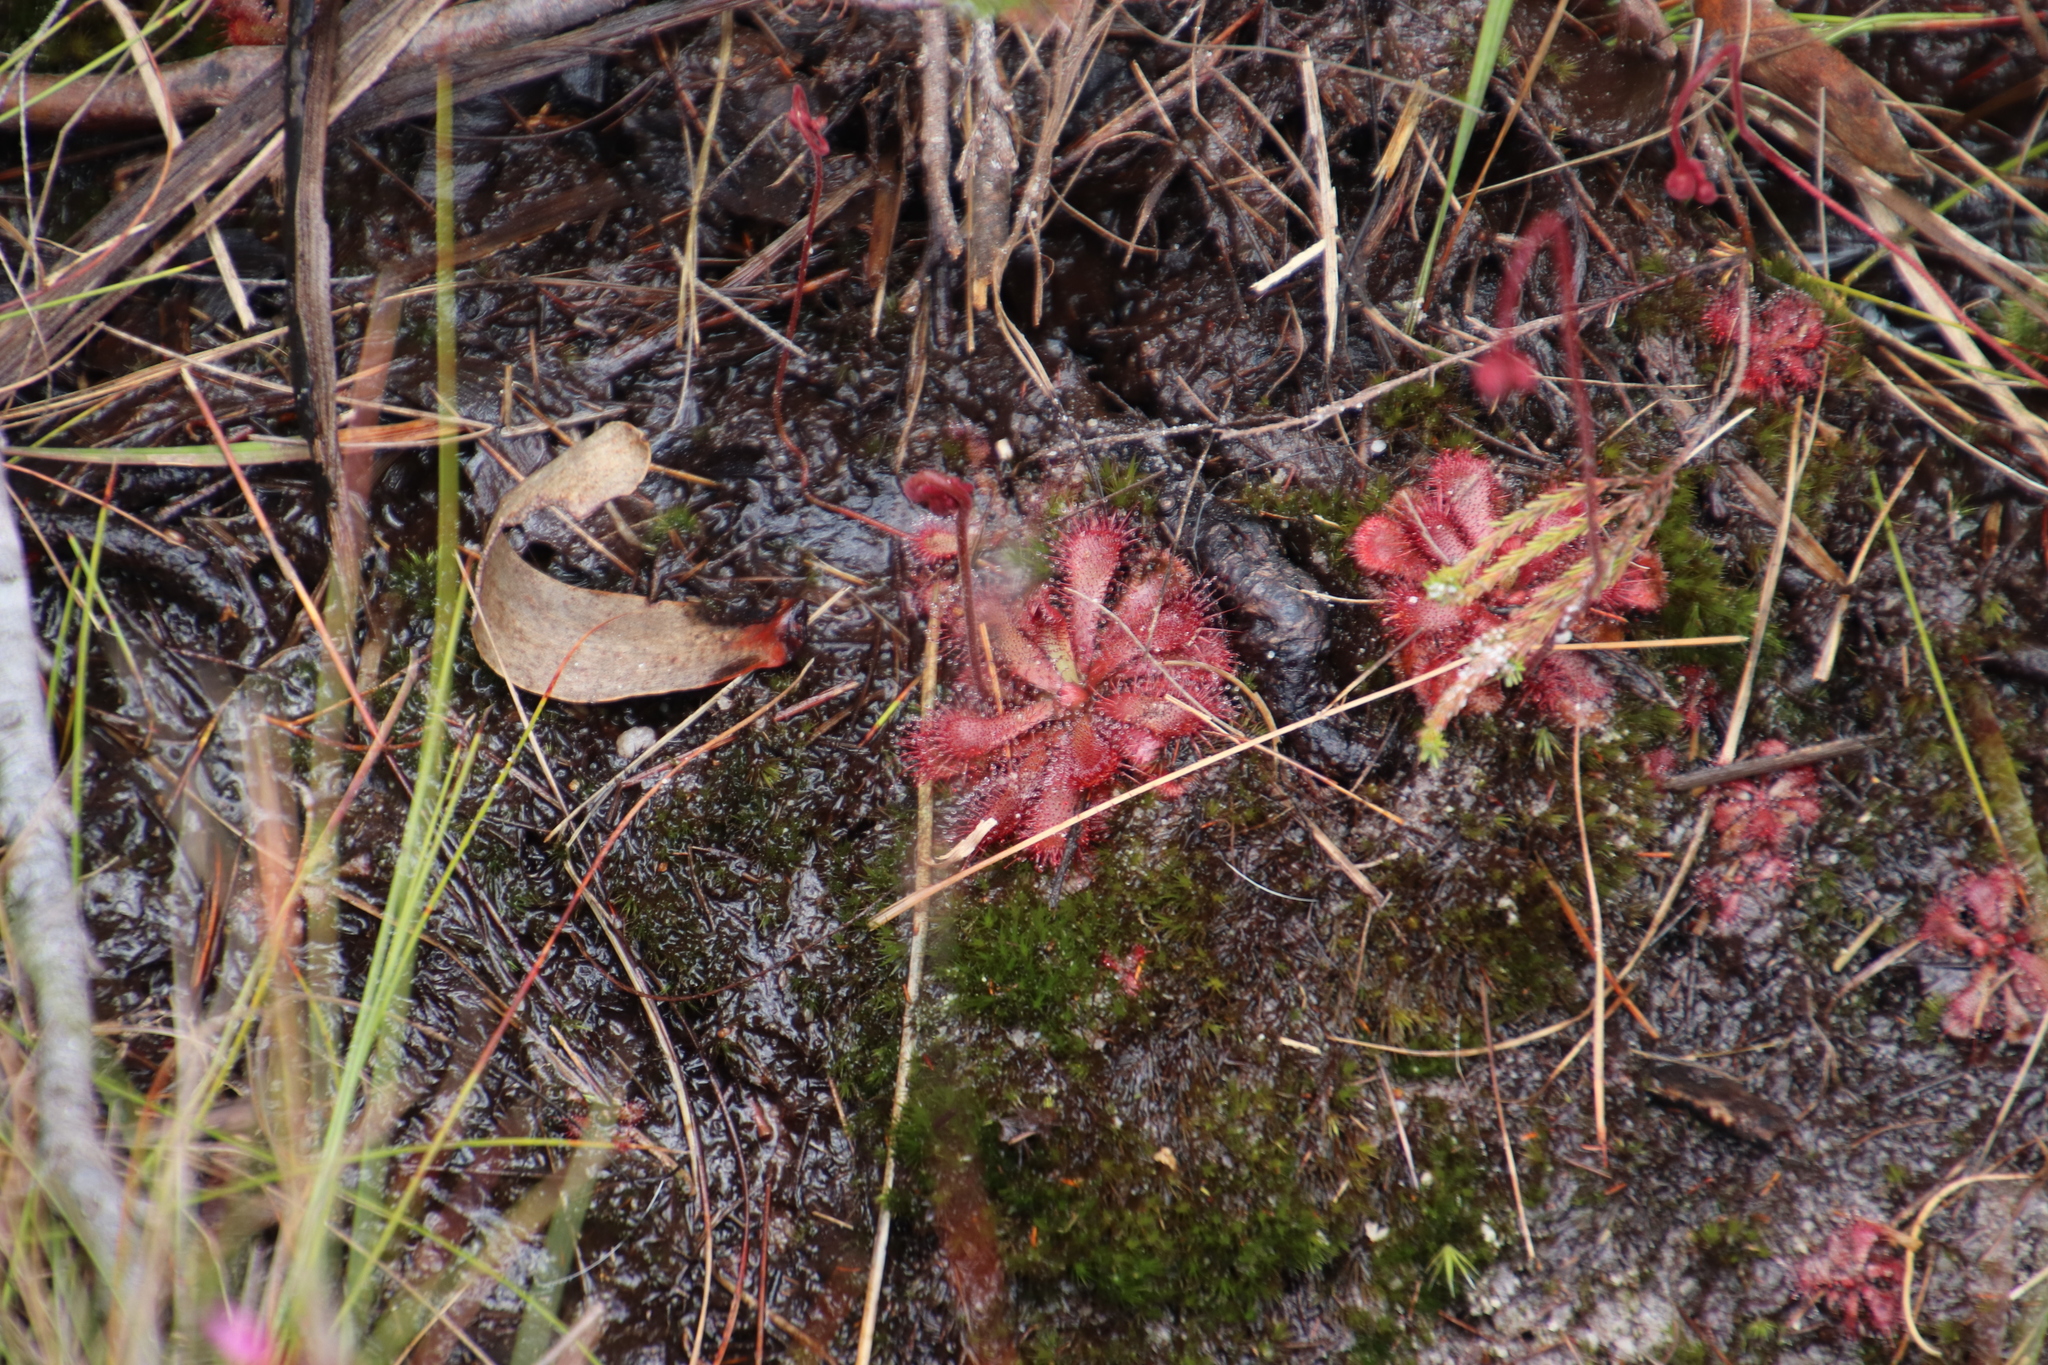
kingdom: Plantae
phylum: Tracheophyta
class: Magnoliopsida
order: Caryophyllales
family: Droseraceae
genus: Drosera
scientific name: Drosera aliciae
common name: Alice sundew
